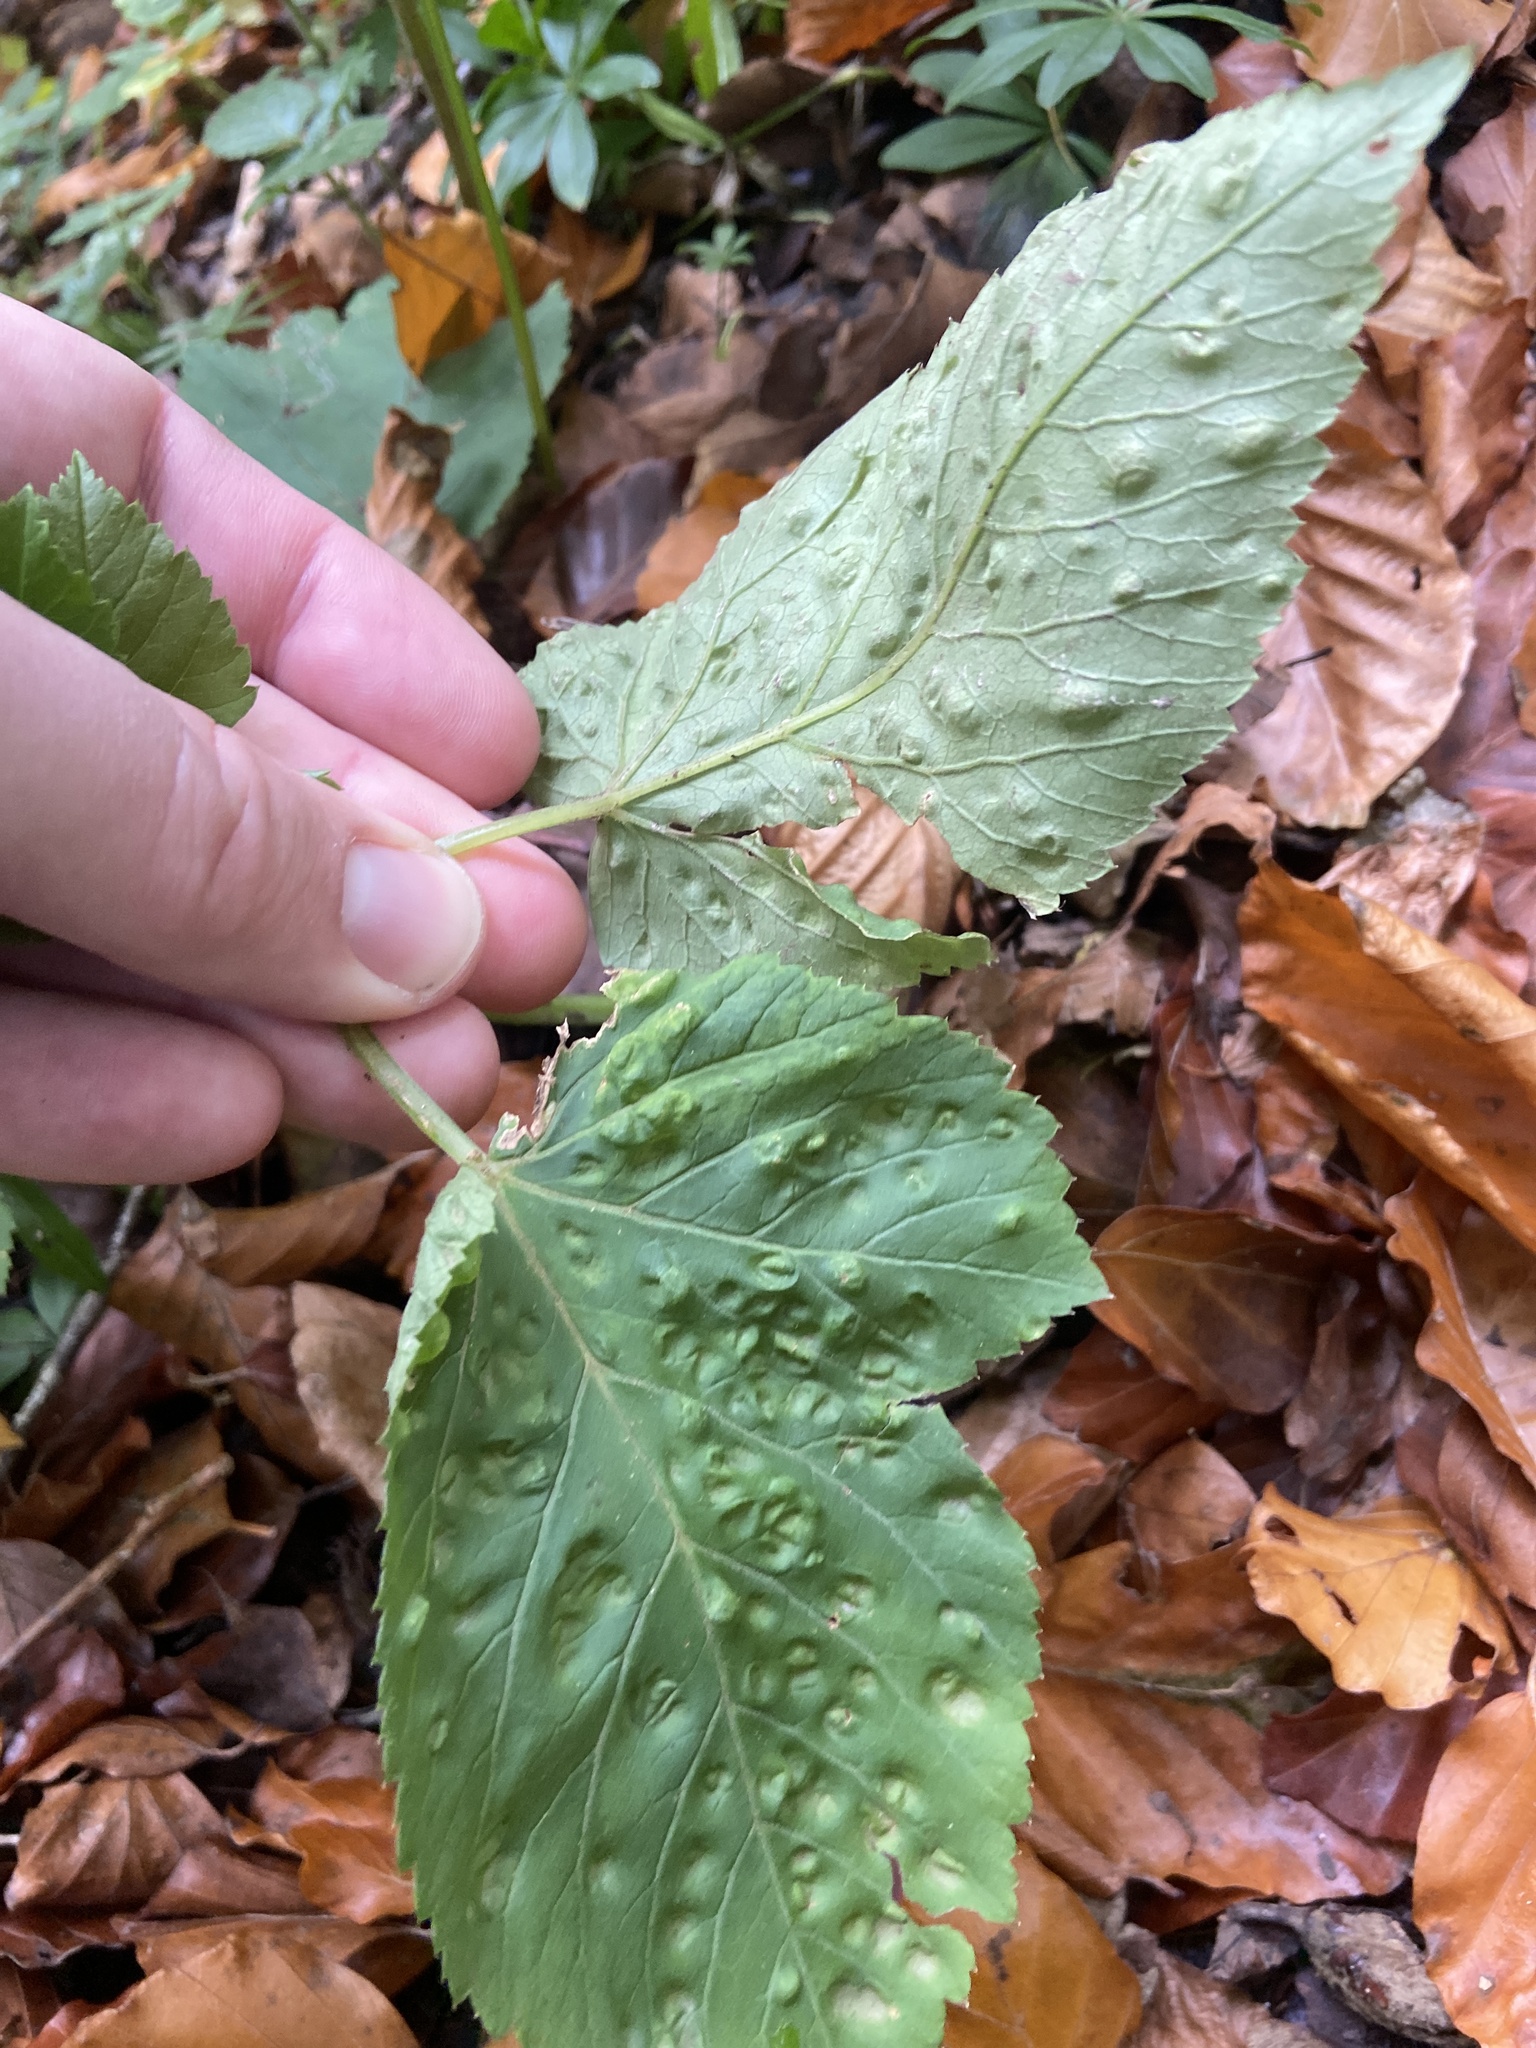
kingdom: Animalia
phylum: Arthropoda
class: Insecta
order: Hemiptera
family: Triozidae
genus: Trioza
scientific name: Trioza flavipennis
